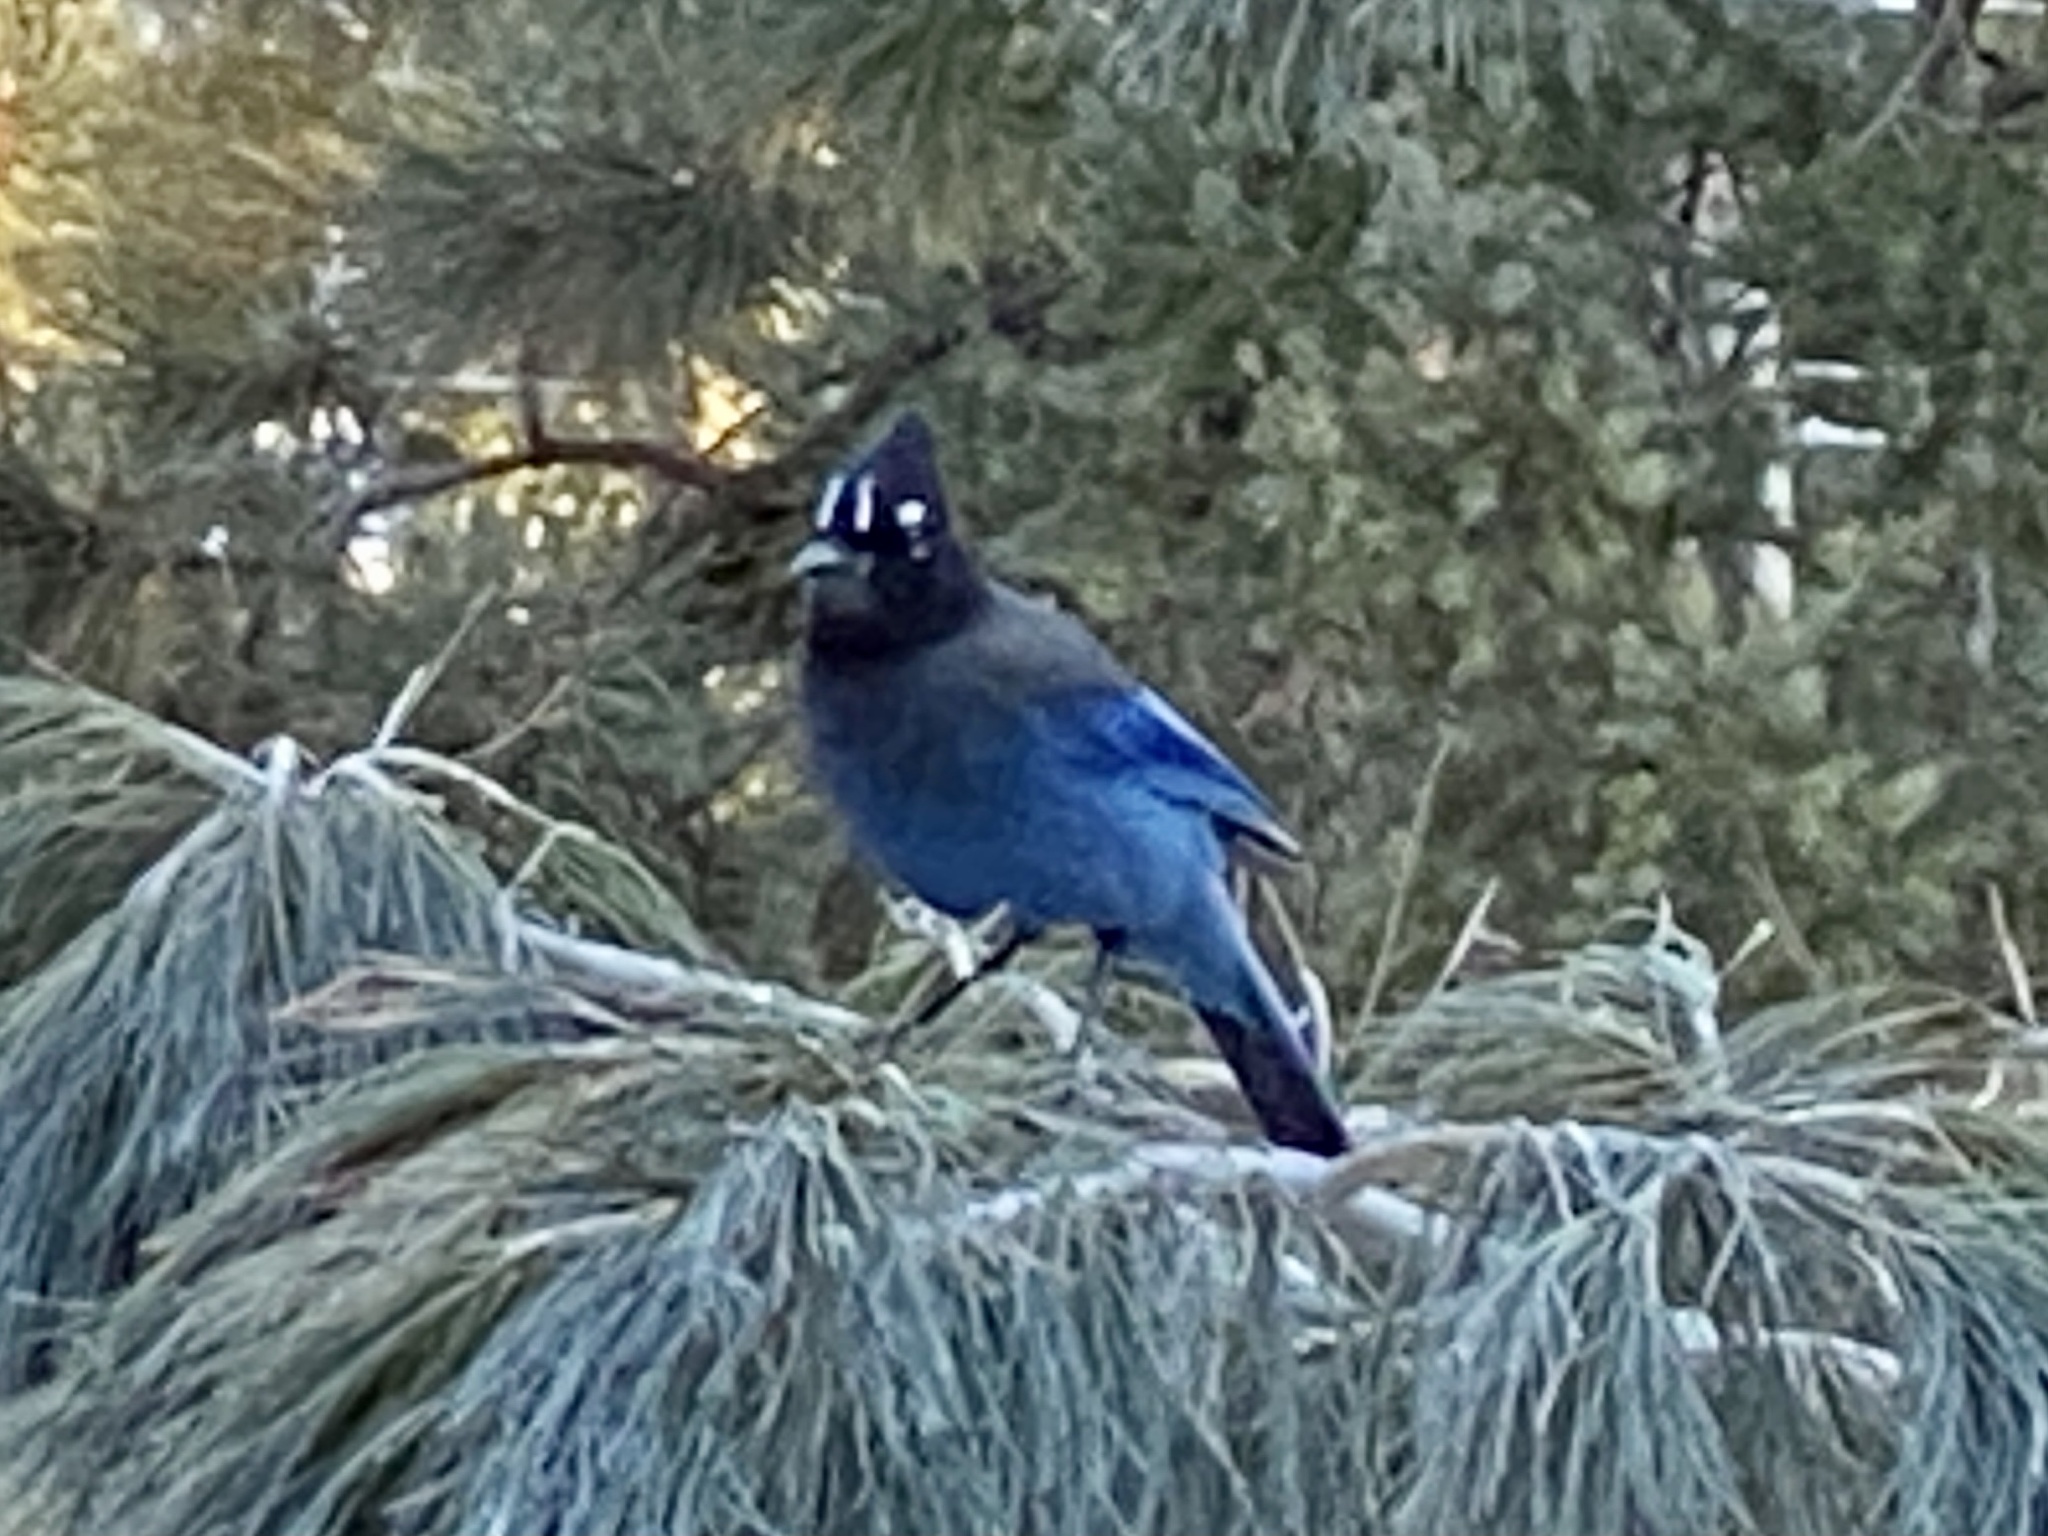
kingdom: Animalia
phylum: Chordata
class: Aves
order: Passeriformes
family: Corvidae
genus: Cyanocitta
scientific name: Cyanocitta stelleri
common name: Steller's jay
